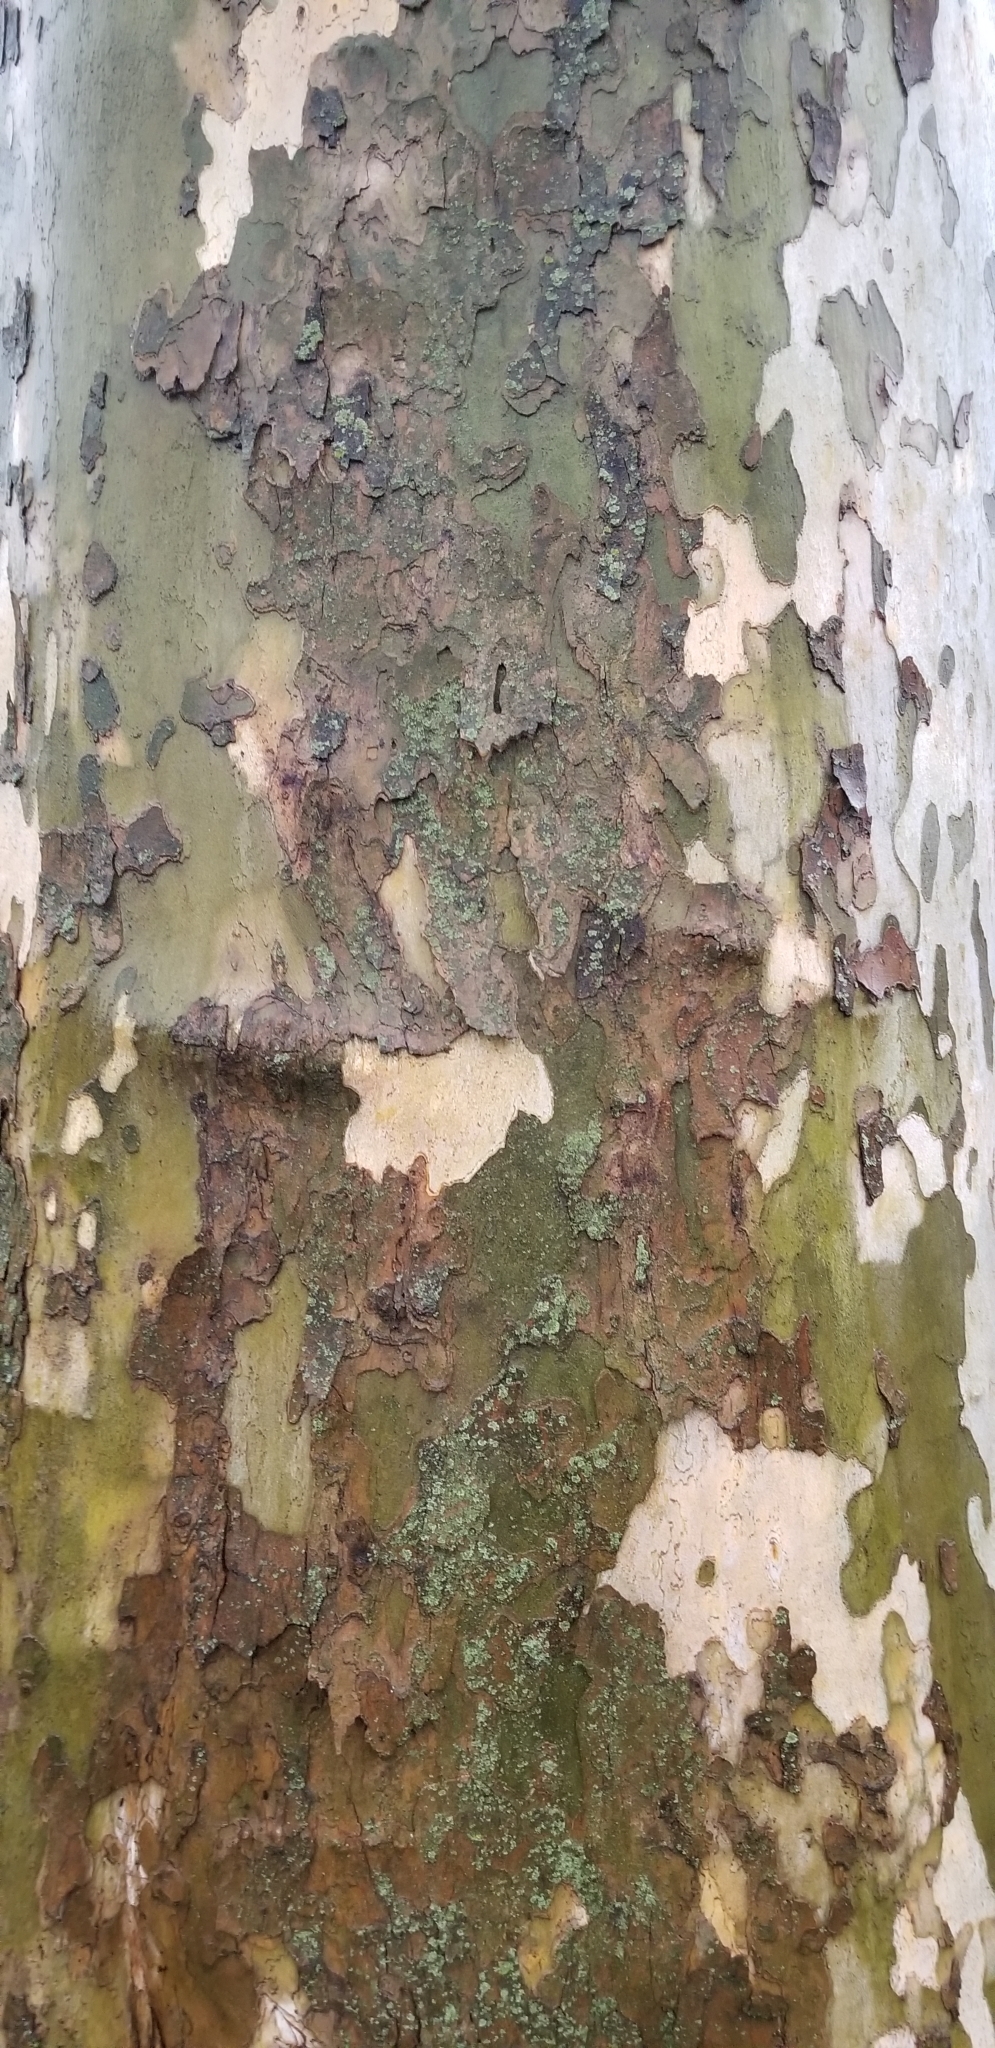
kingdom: Plantae
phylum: Tracheophyta
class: Magnoliopsida
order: Proteales
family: Platanaceae
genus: Platanus
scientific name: Platanus occidentalis
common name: American sycamore
